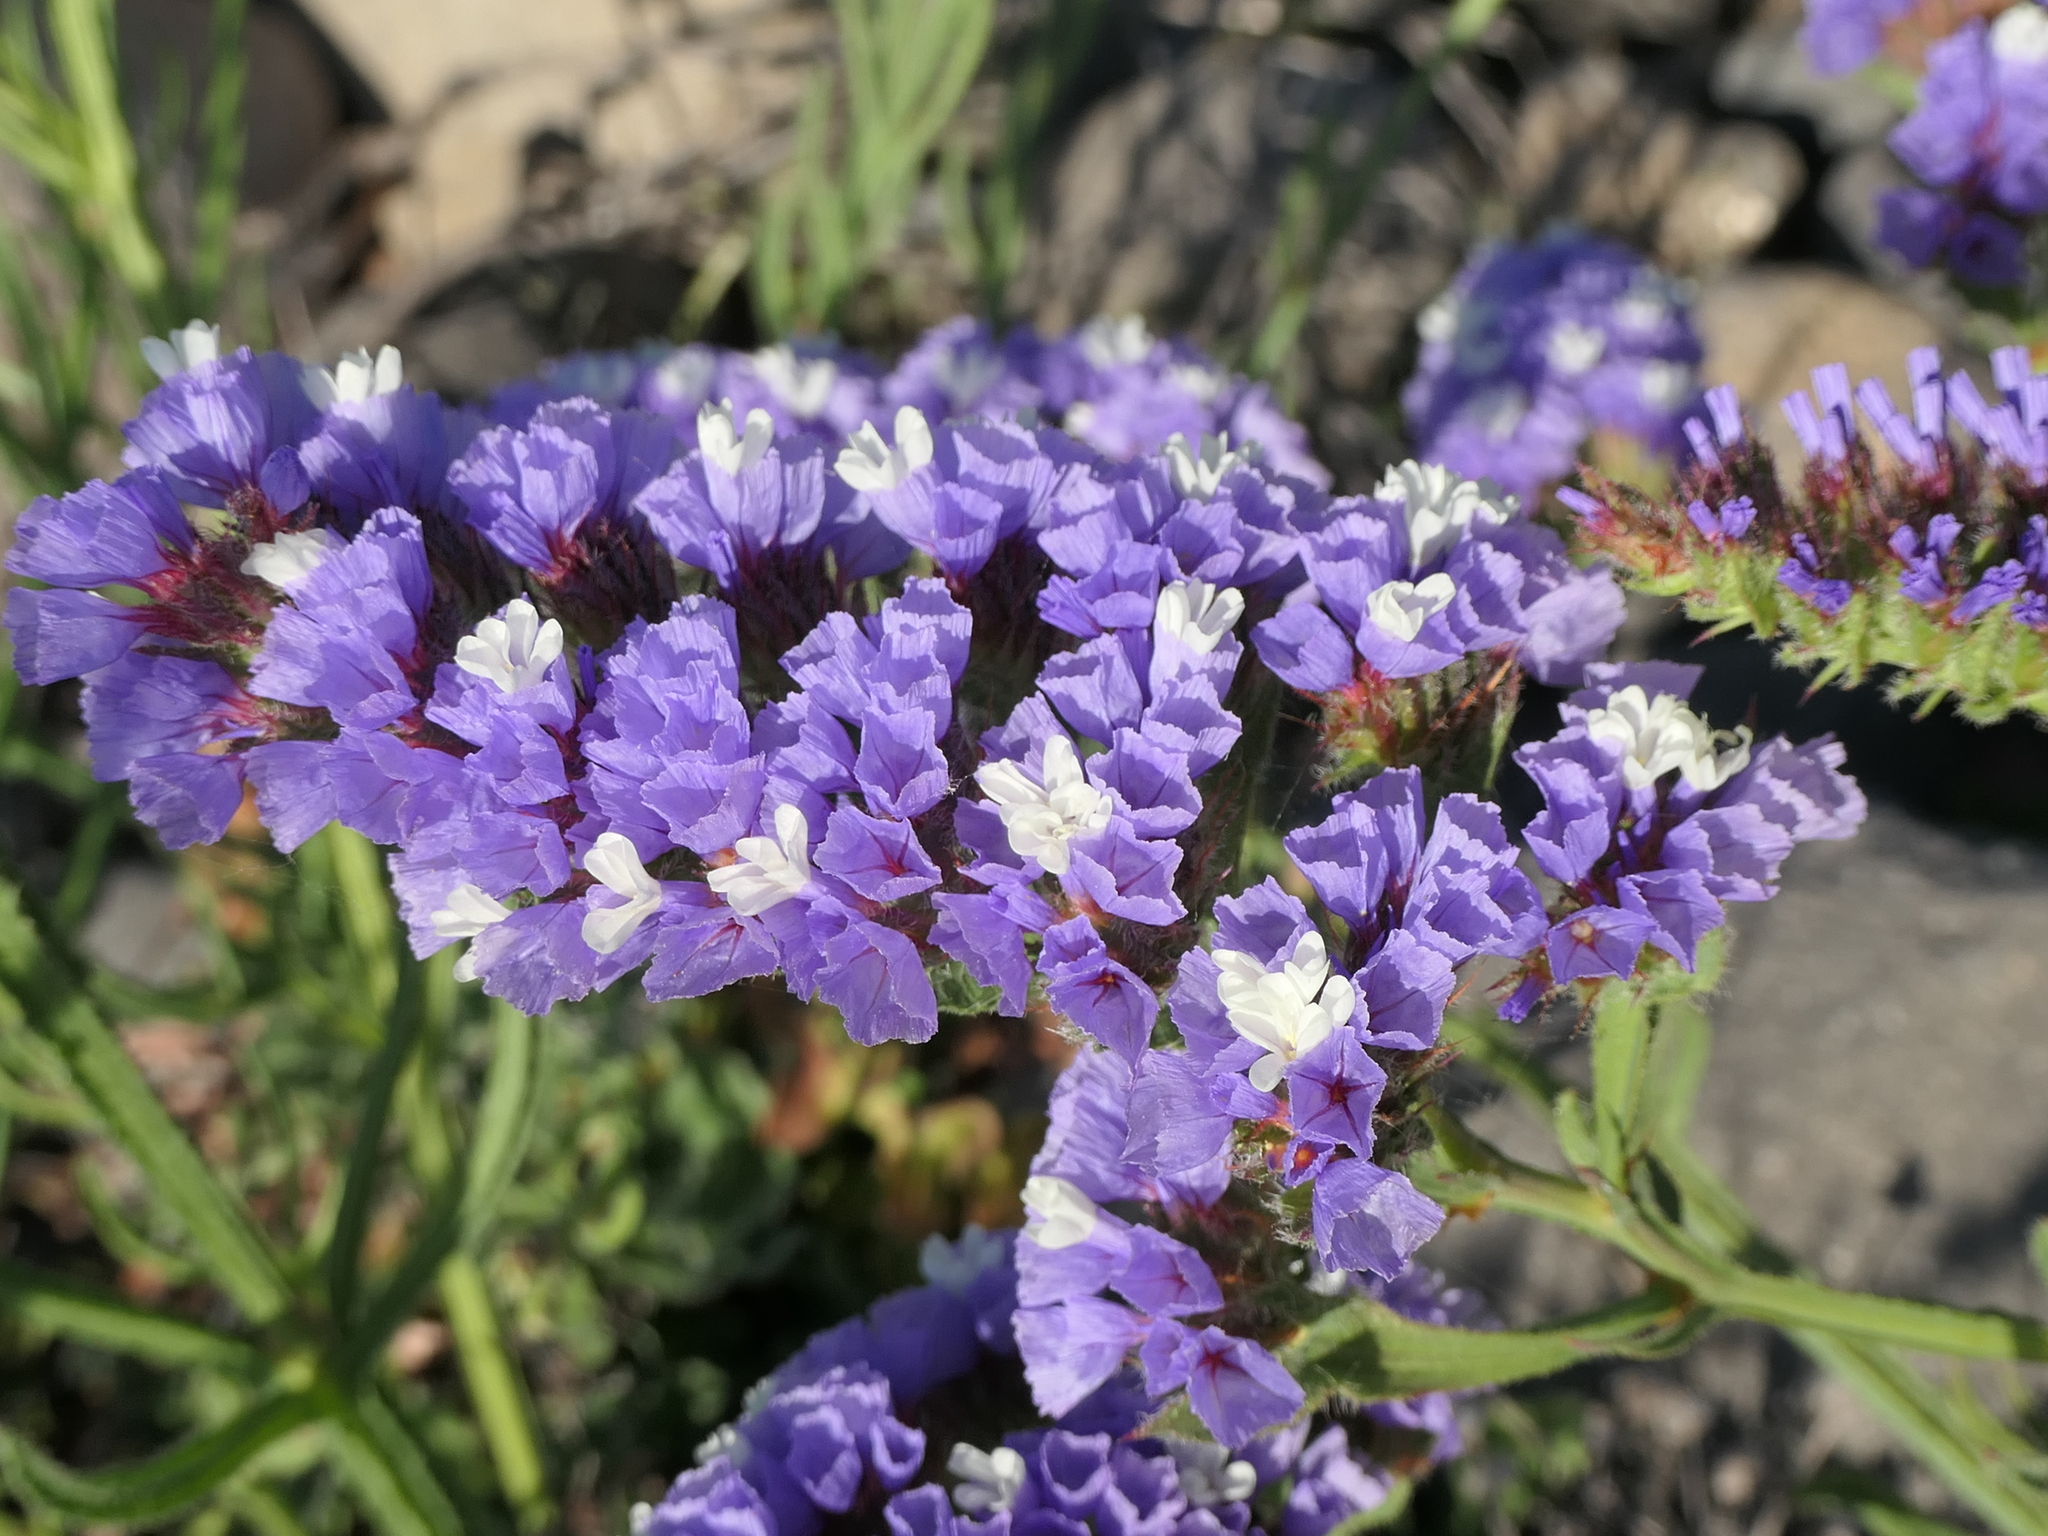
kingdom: Plantae
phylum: Tracheophyta
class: Magnoliopsida
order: Caryophyllales
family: Plumbaginaceae
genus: Limonium
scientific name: Limonium sinuatum
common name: Statice
